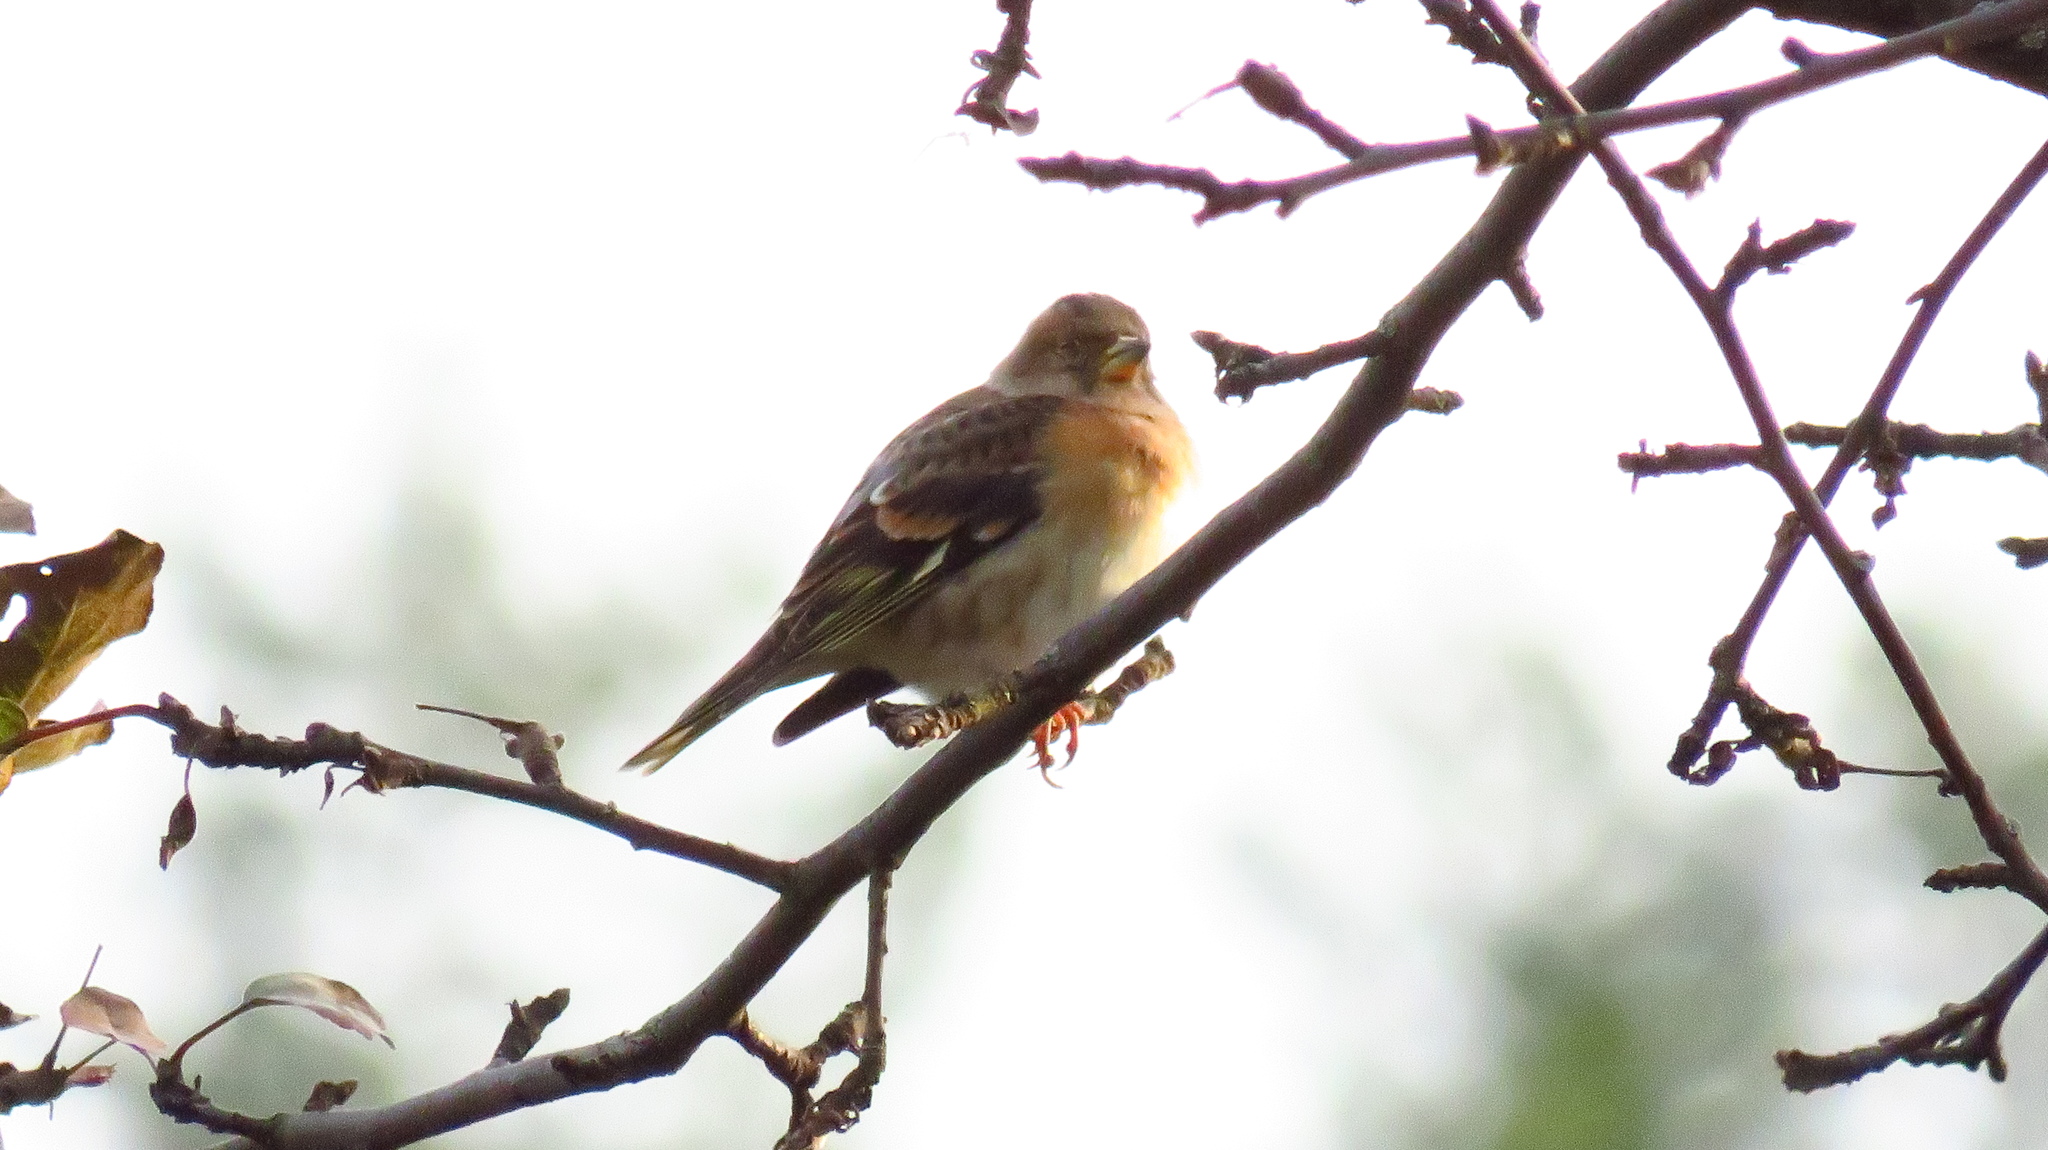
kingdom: Animalia
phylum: Chordata
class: Aves
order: Passeriformes
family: Fringillidae
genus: Fringilla
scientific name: Fringilla montifringilla
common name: Brambling
